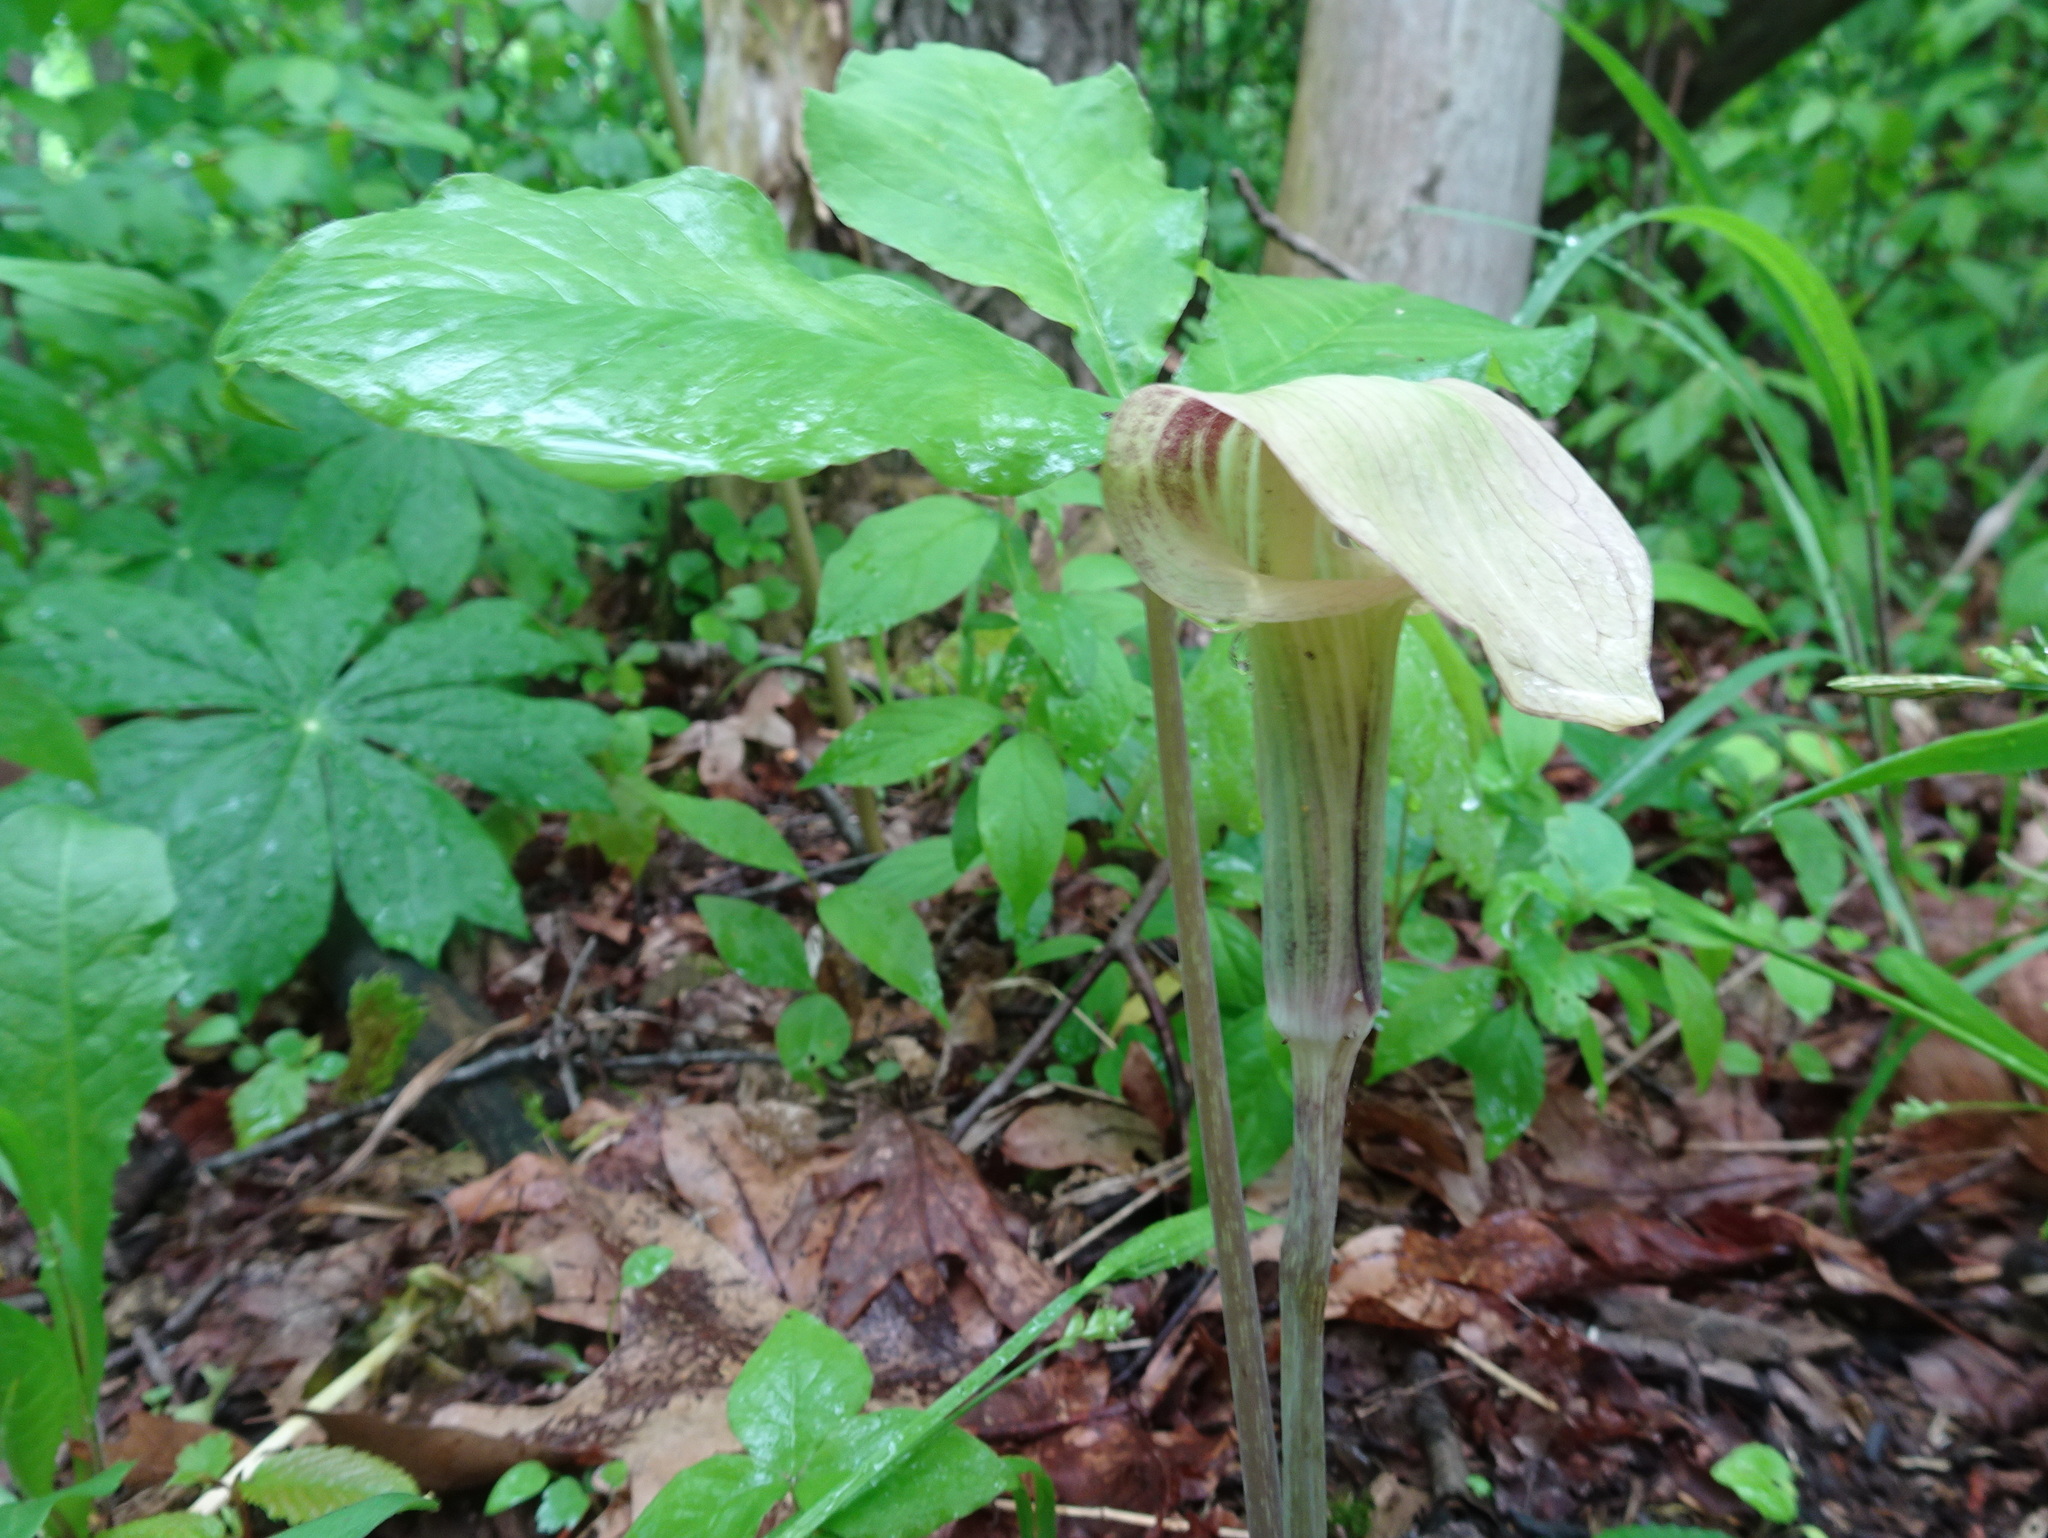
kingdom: Plantae
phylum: Tracheophyta
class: Liliopsida
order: Alismatales
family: Araceae
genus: Arisaema
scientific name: Arisaema triphyllum
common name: Jack-in-the-pulpit
